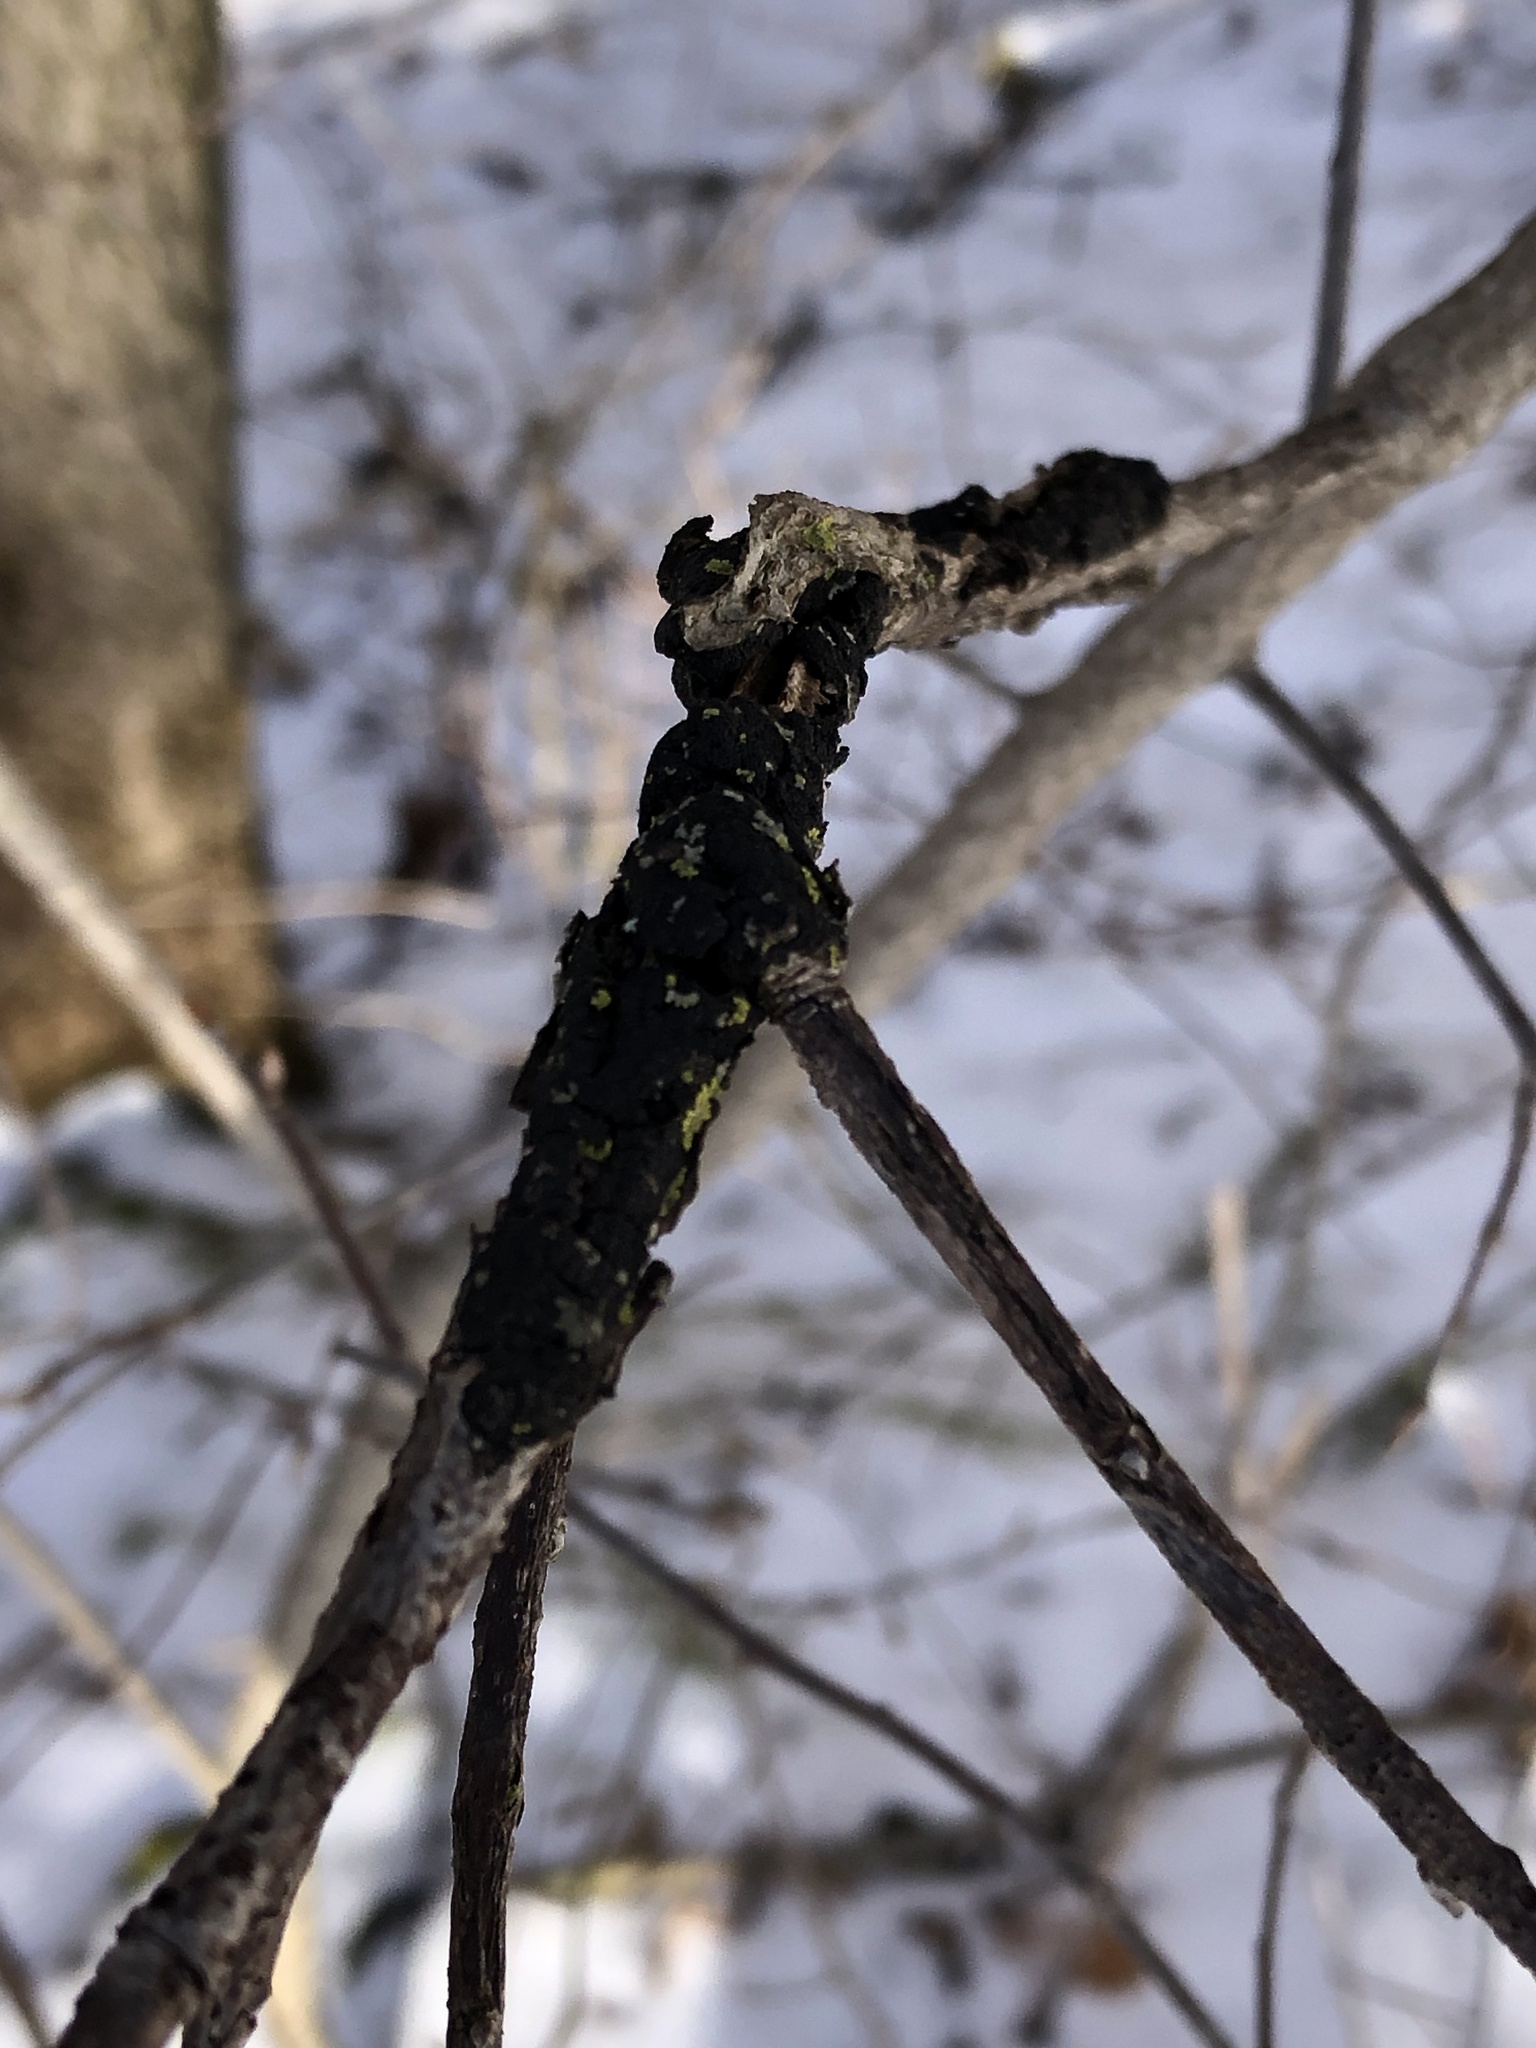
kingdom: Fungi
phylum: Ascomycota
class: Dothideomycetes
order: Venturiales
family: Venturiaceae
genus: Apiosporina
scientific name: Apiosporina morbosa
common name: Black knot
